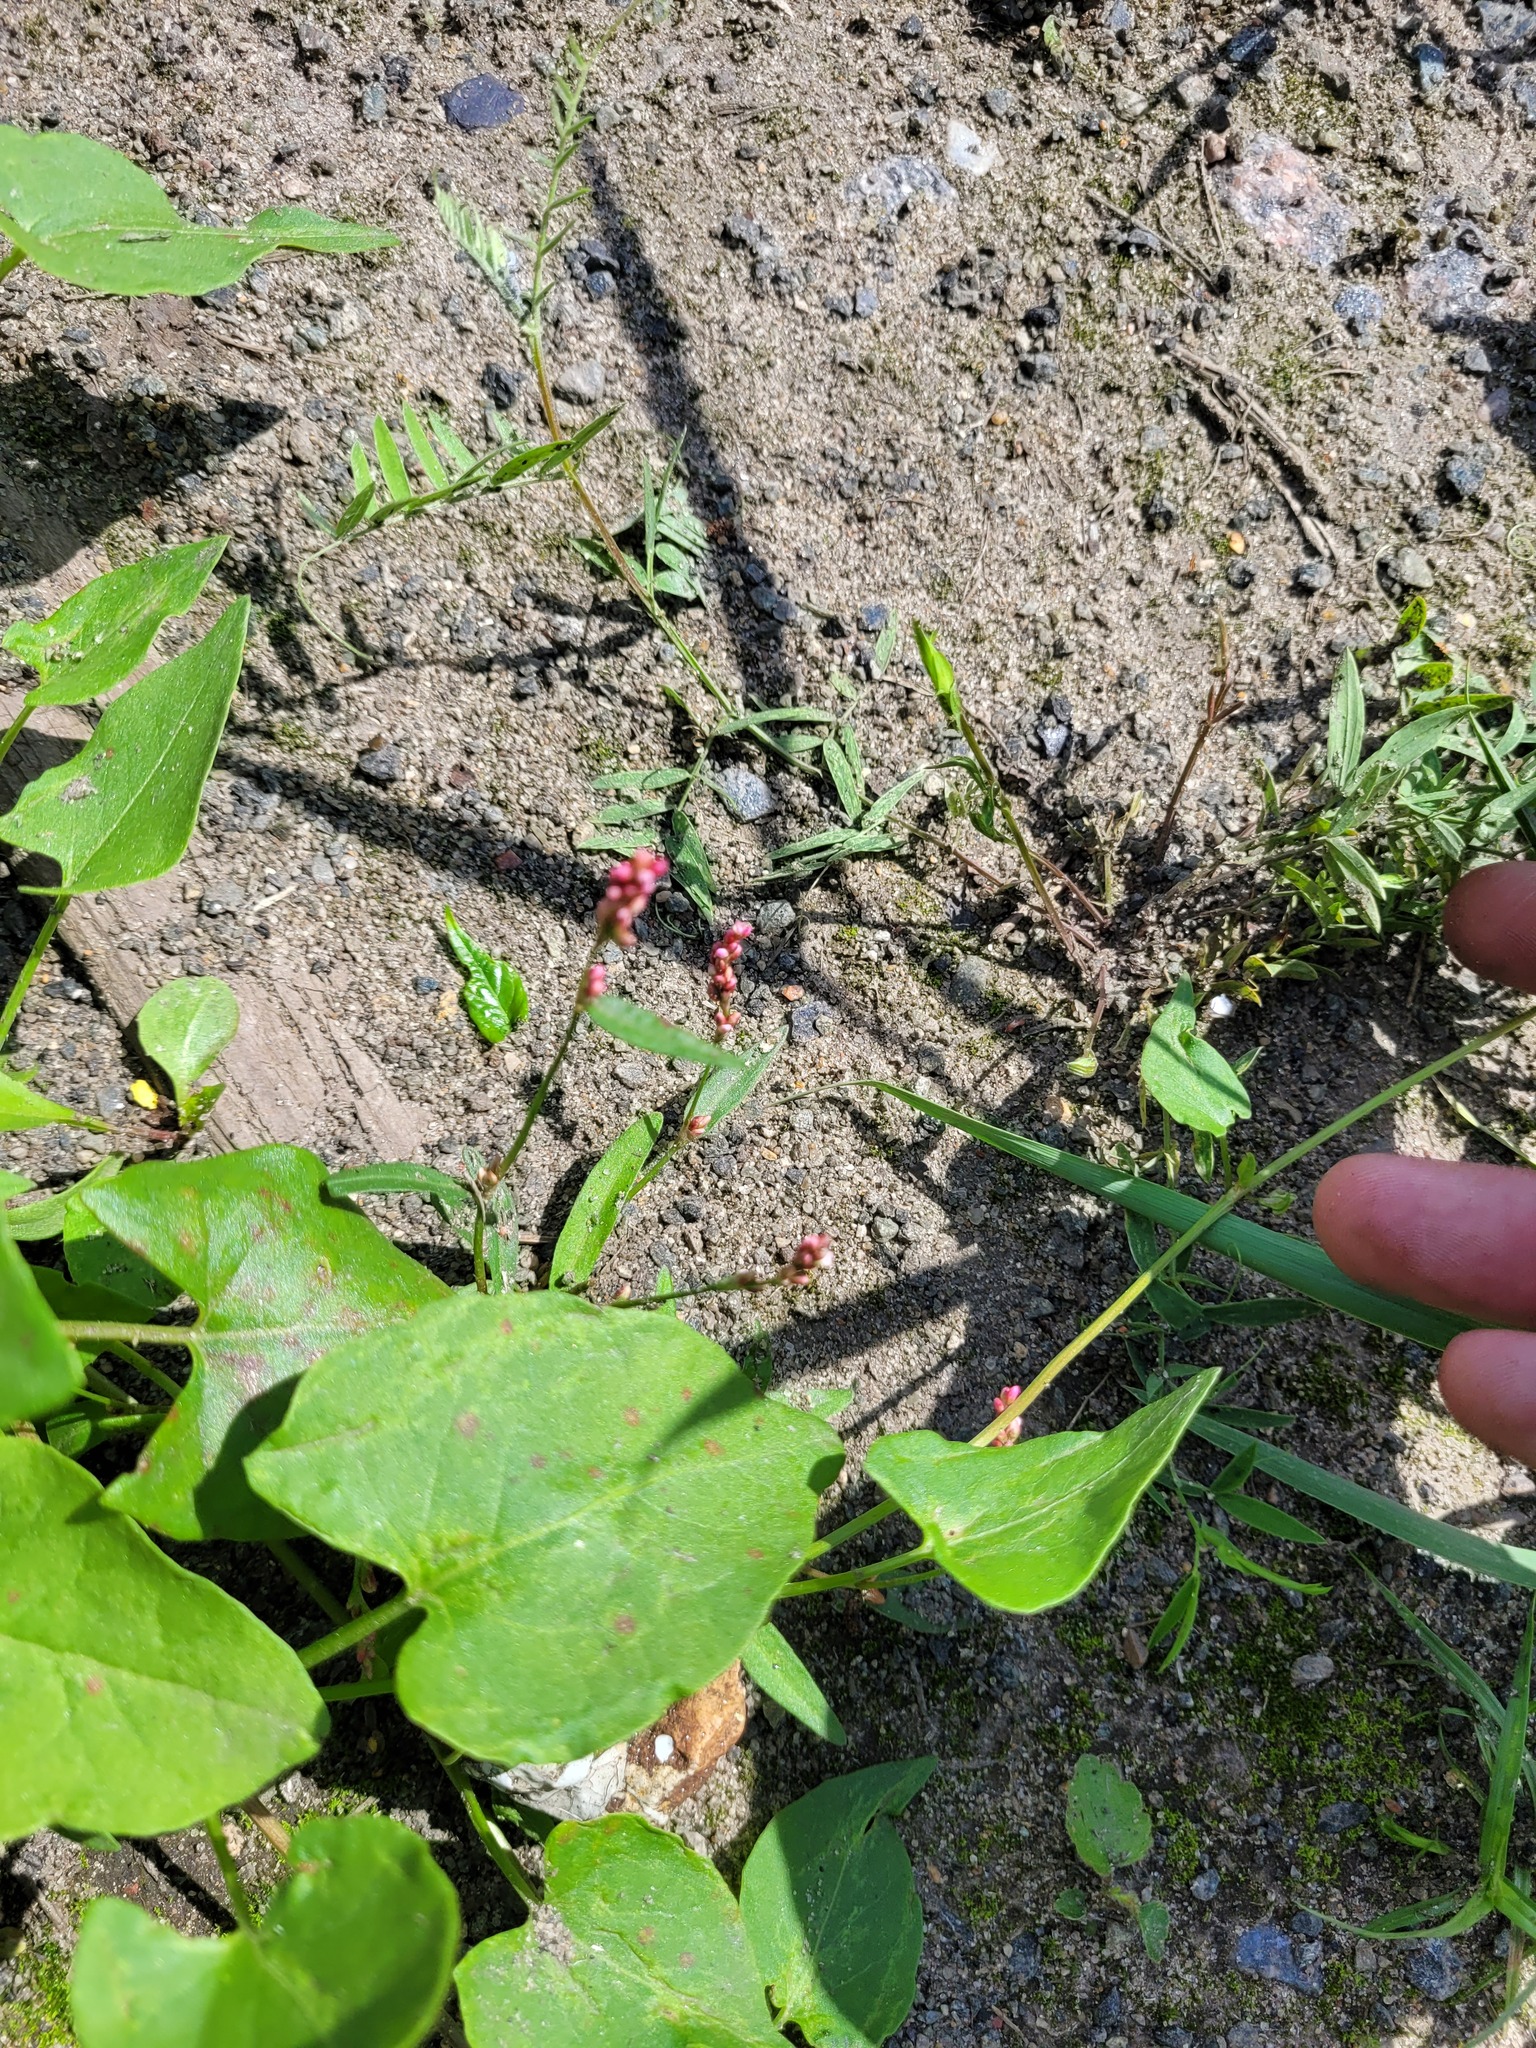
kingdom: Plantae
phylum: Tracheophyta
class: Magnoliopsida
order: Caryophyllales
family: Polygonaceae
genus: Persicaria
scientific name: Persicaria minor
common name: Small water-pepper
